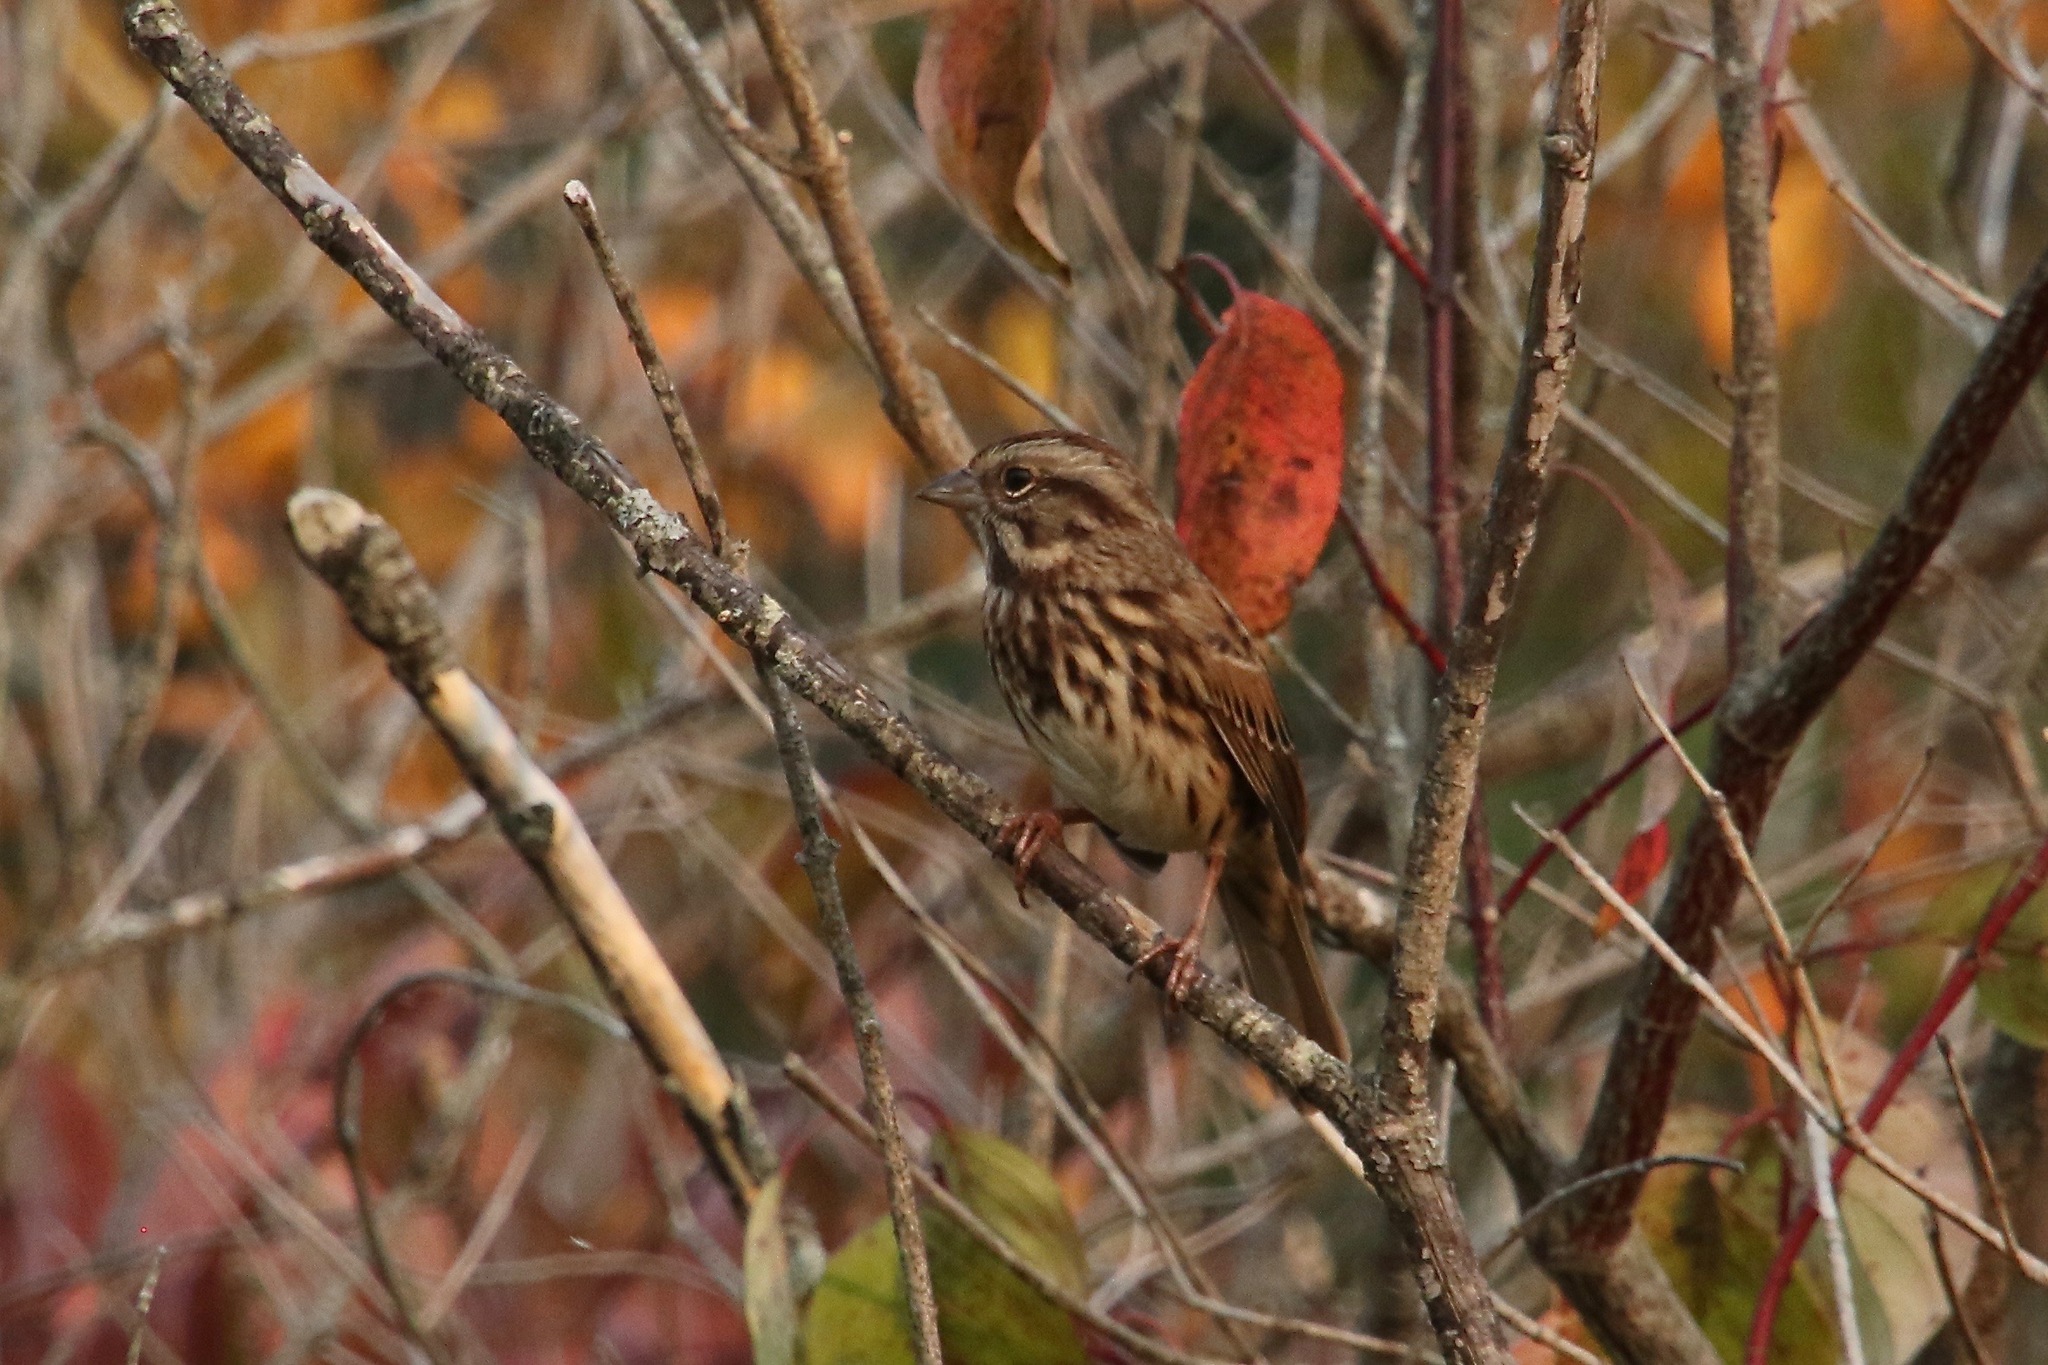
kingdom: Animalia
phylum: Chordata
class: Aves
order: Passeriformes
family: Passerellidae
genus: Melospiza
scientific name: Melospiza melodia
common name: Song sparrow
